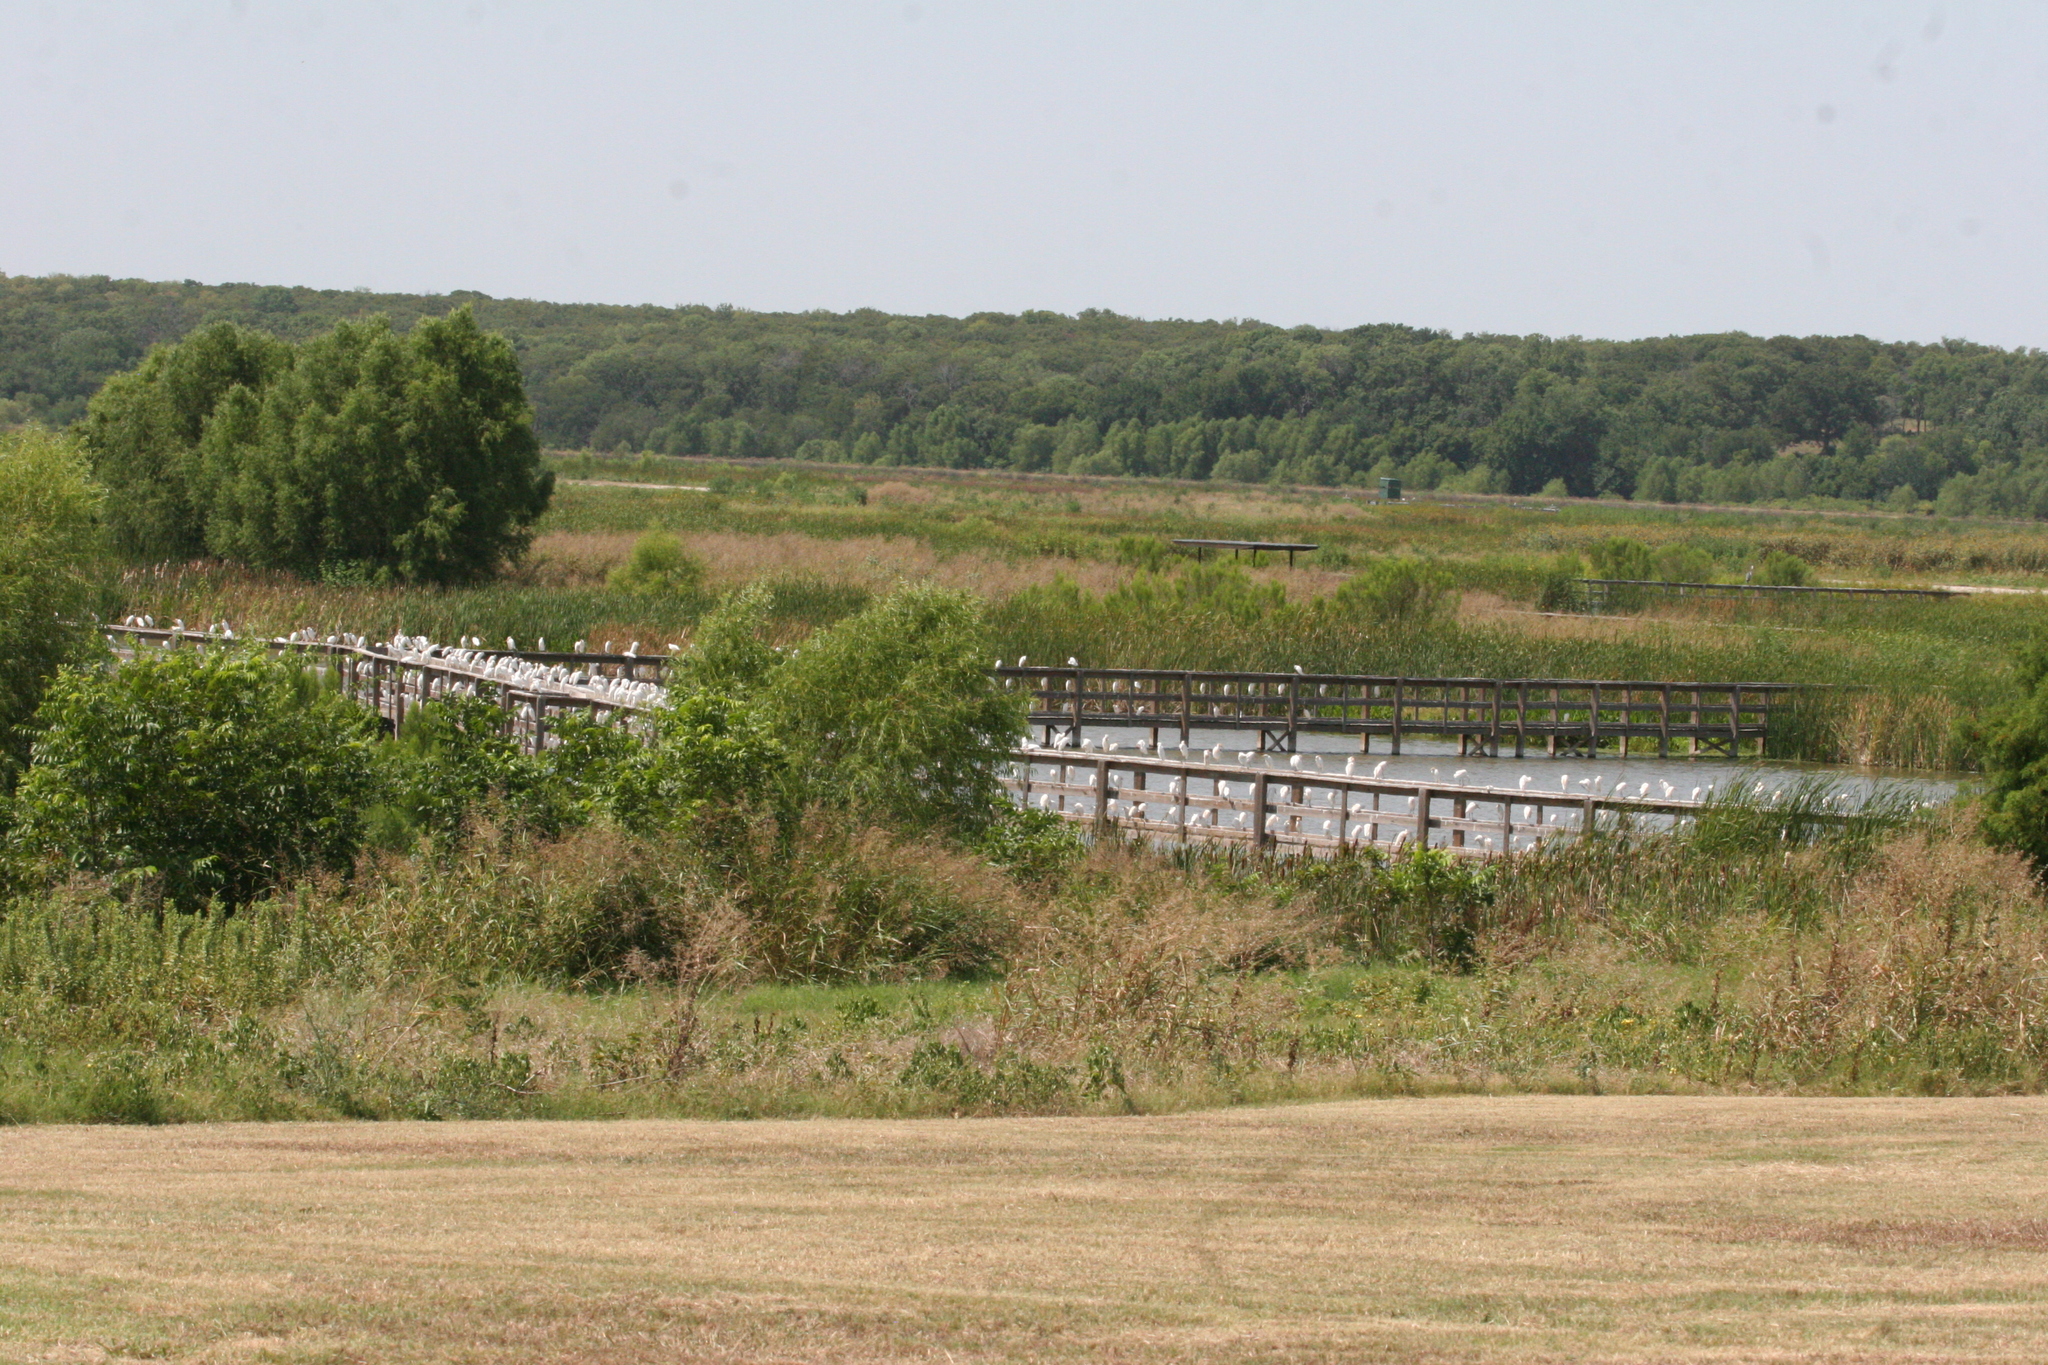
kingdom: Animalia
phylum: Chordata
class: Aves
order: Pelecaniformes
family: Ardeidae
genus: Bubulcus
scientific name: Bubulcus ibis
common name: Cattle egret
